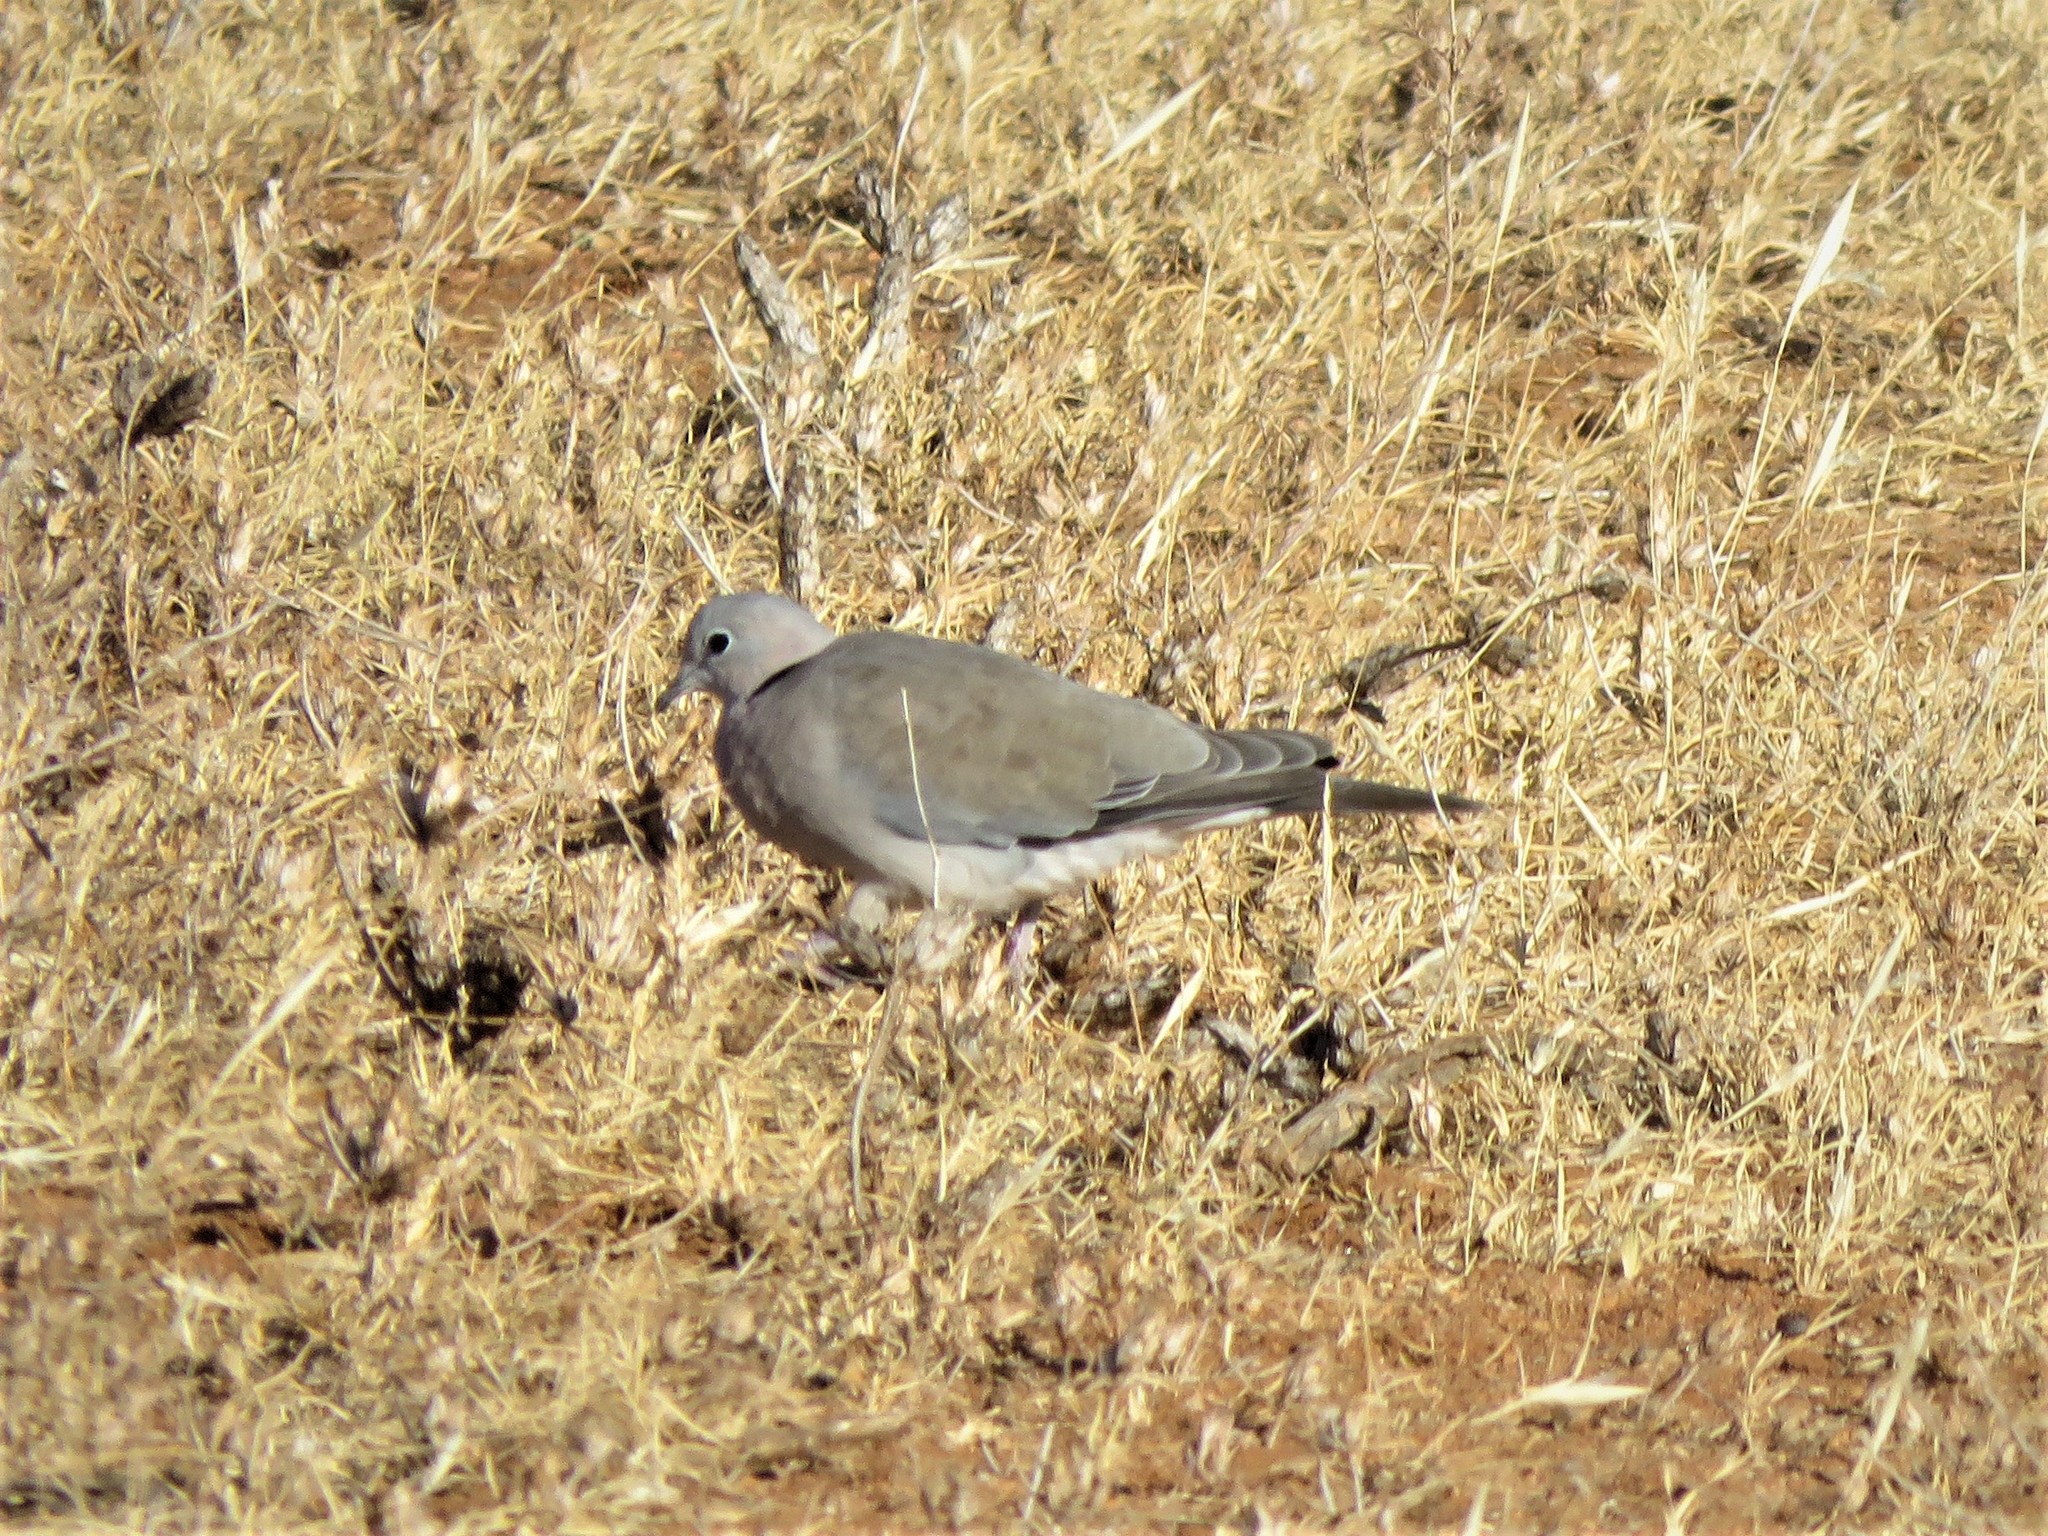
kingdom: Animalia
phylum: Chordata
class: Aves
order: Columbiformes
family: Columbidae
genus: Streptopelia
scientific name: Streptopelia capicola
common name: Ring-necked dove
